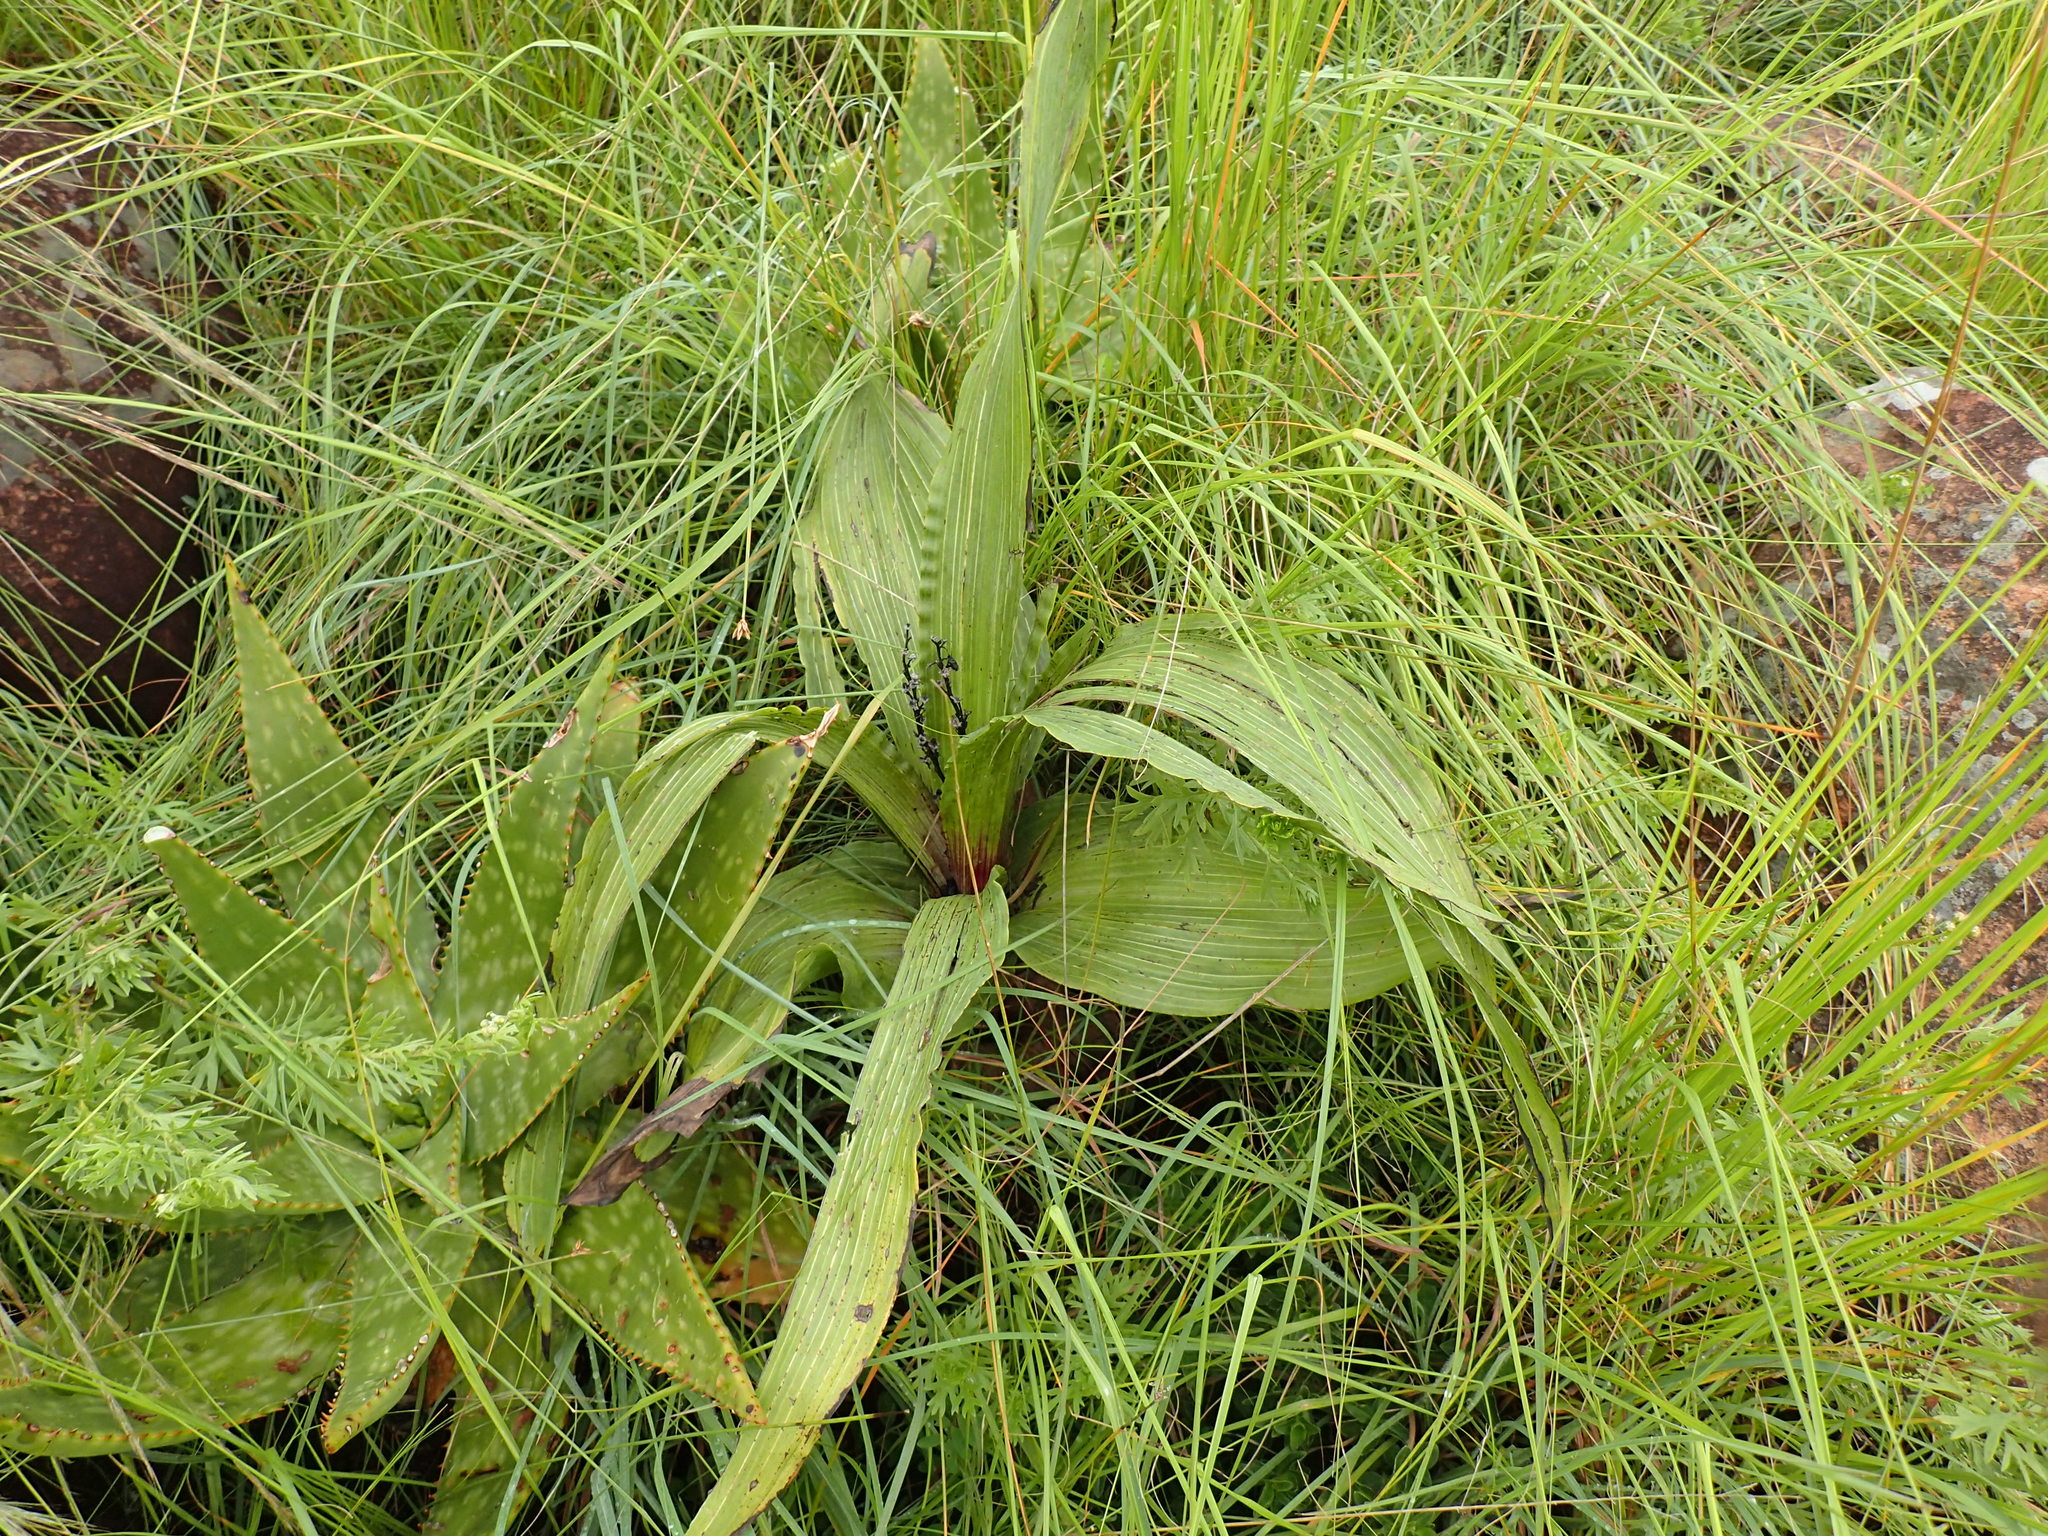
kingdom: Plantae
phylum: Tracheophyta
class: Liliopsida
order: Asparagales
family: Hypoxidaceae
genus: Hypoxis
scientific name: Hypoxis colchicifolia
